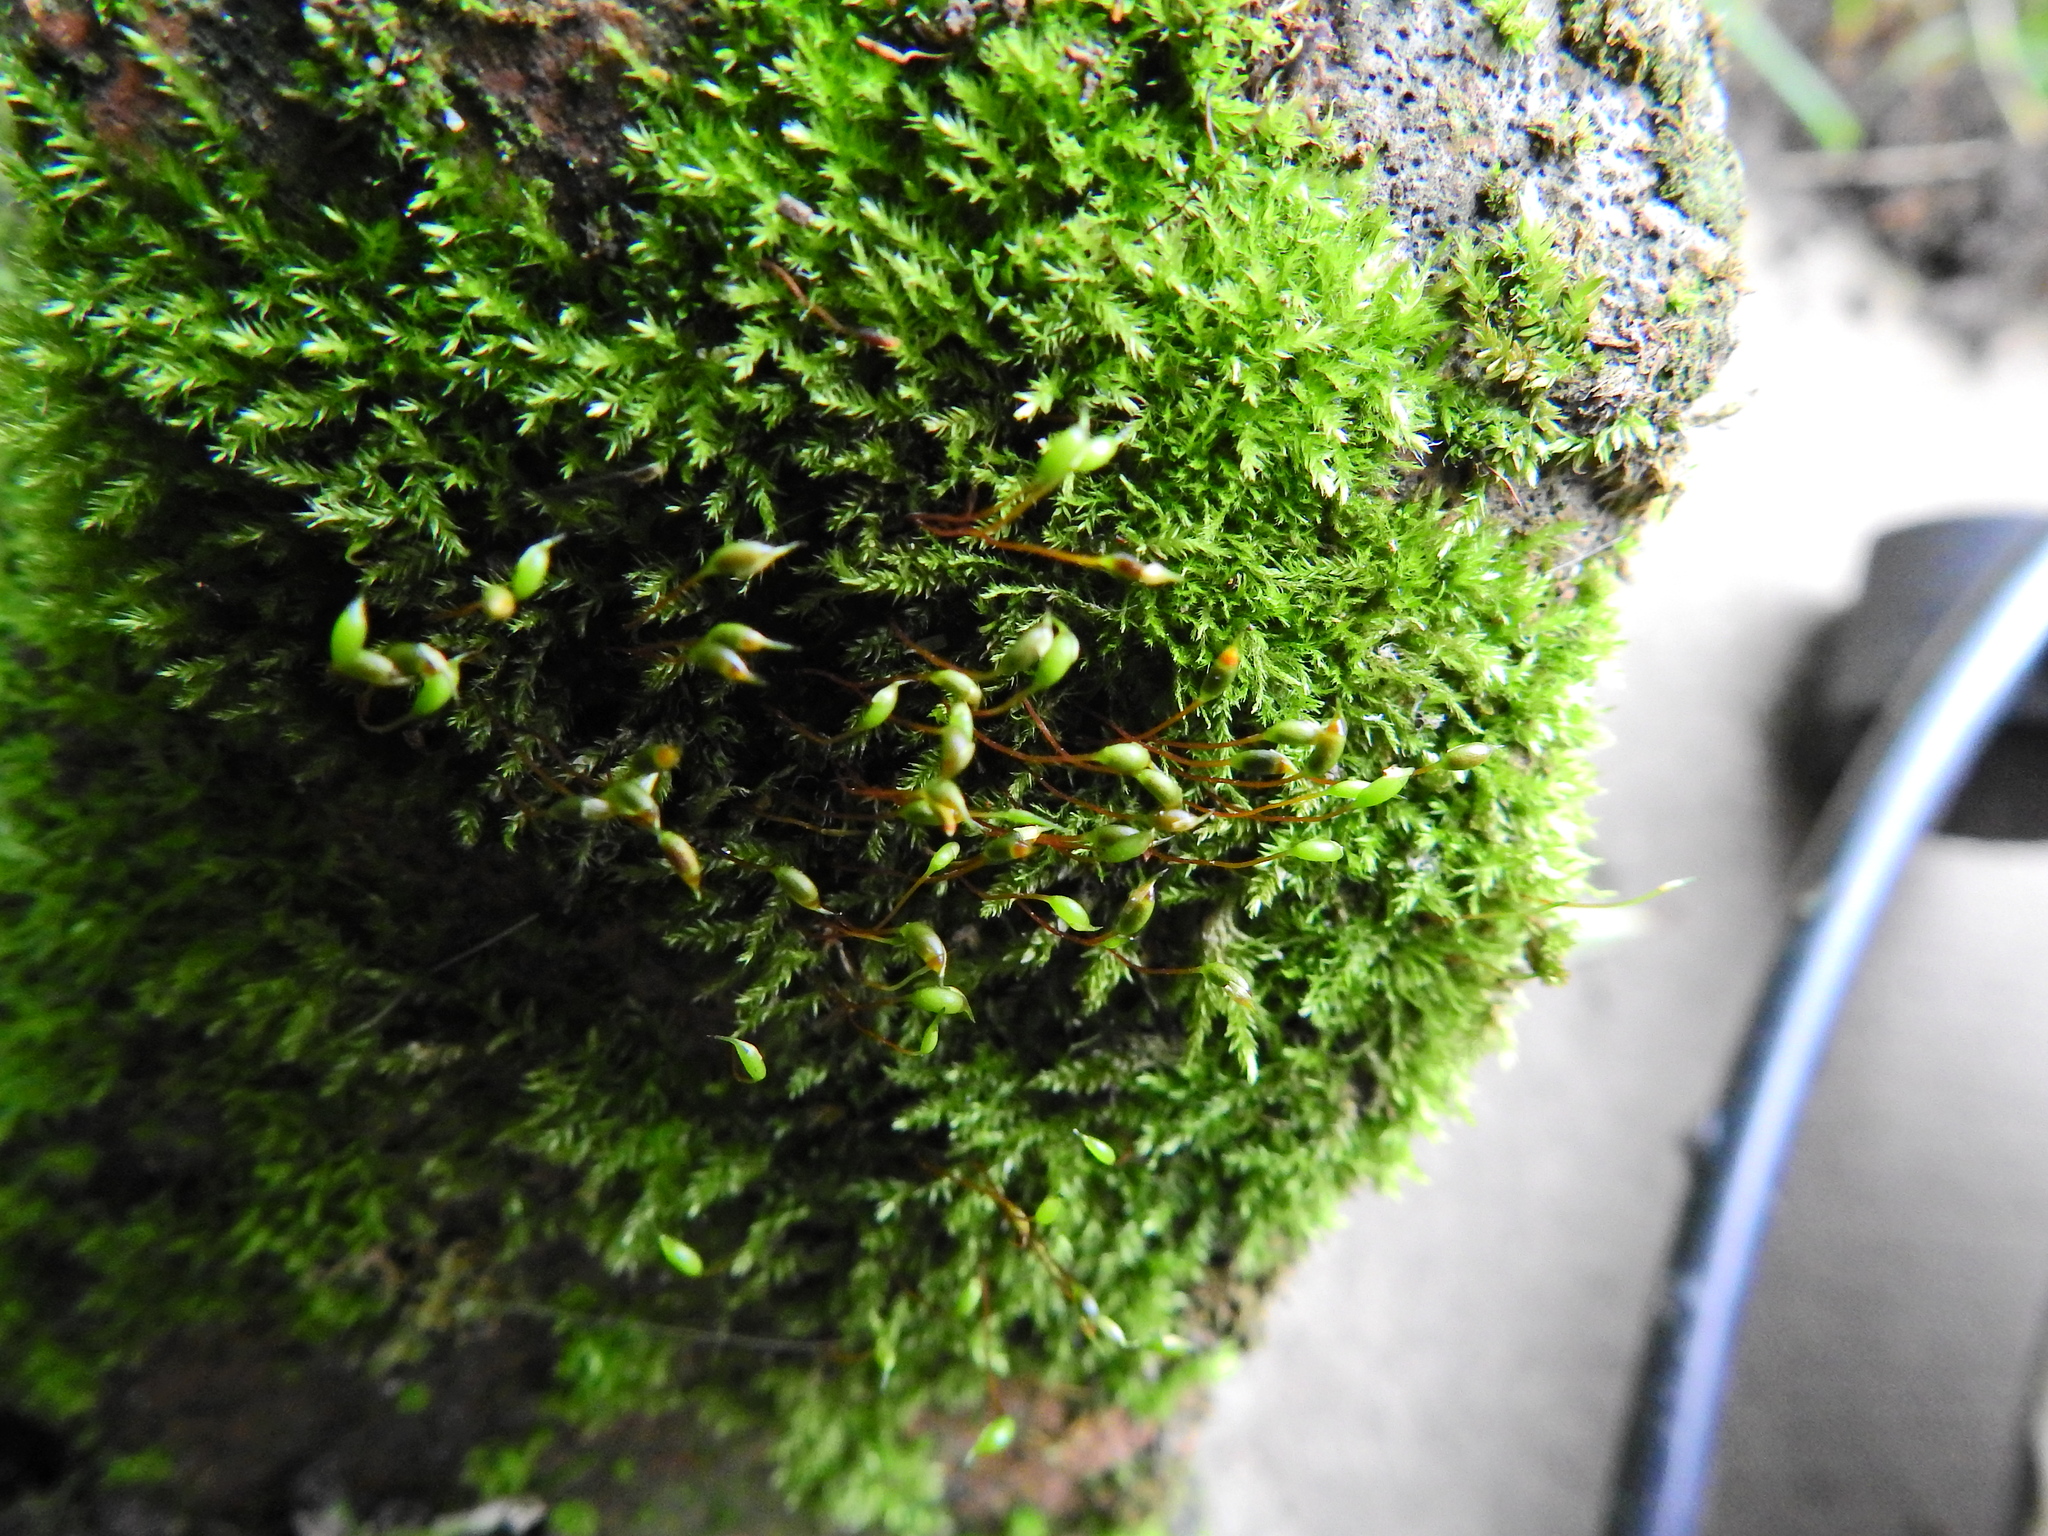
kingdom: Plantae
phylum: Bryophyta
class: Bryopsida
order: Hypnales
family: Brachytheciaceae
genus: Rhynchostegium
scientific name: Rhynchostegium confertum
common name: Clustered feather-moss
